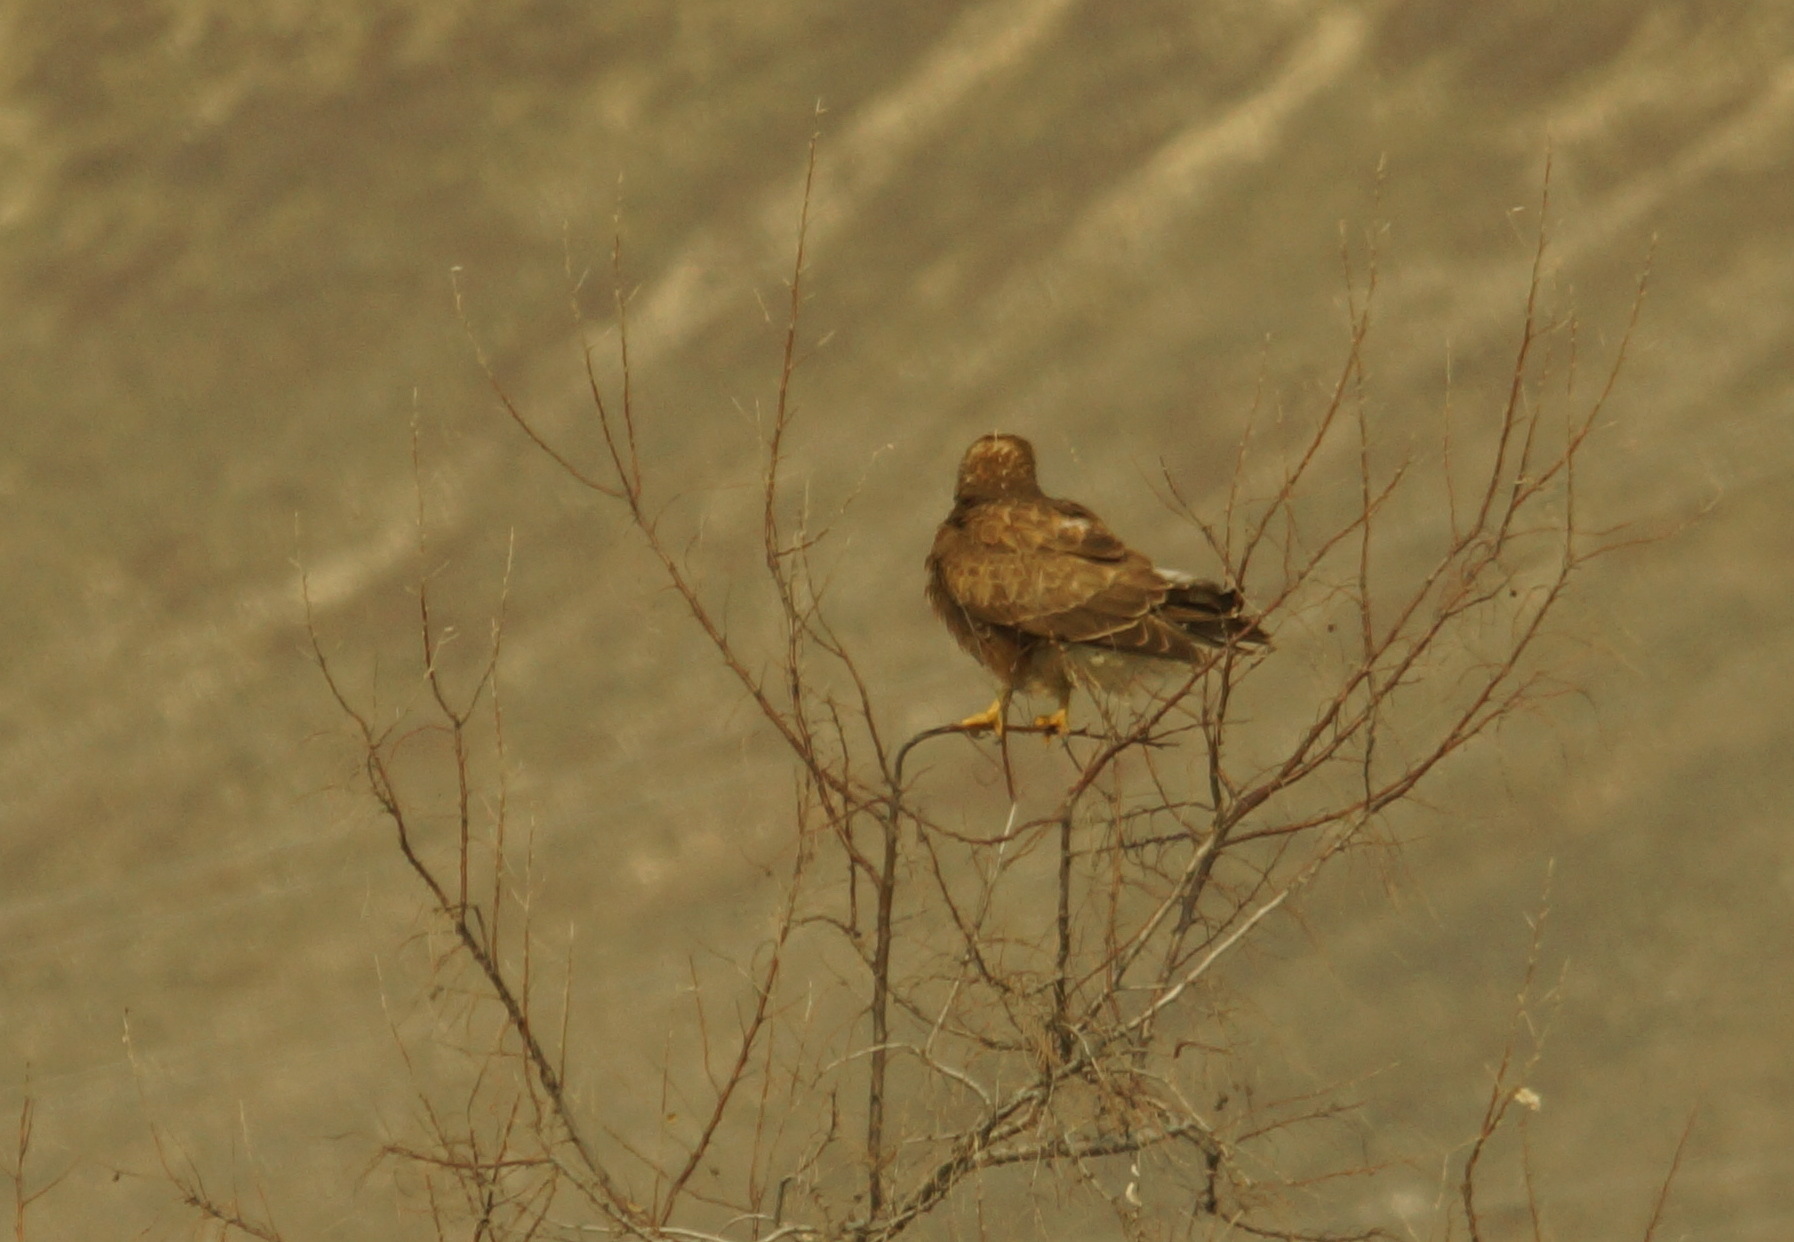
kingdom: Animalia
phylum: Chordata
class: Aves
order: Accipitriformes
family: Accipitridae
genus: Buteo
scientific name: Buteo buteo
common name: Common buzzard
